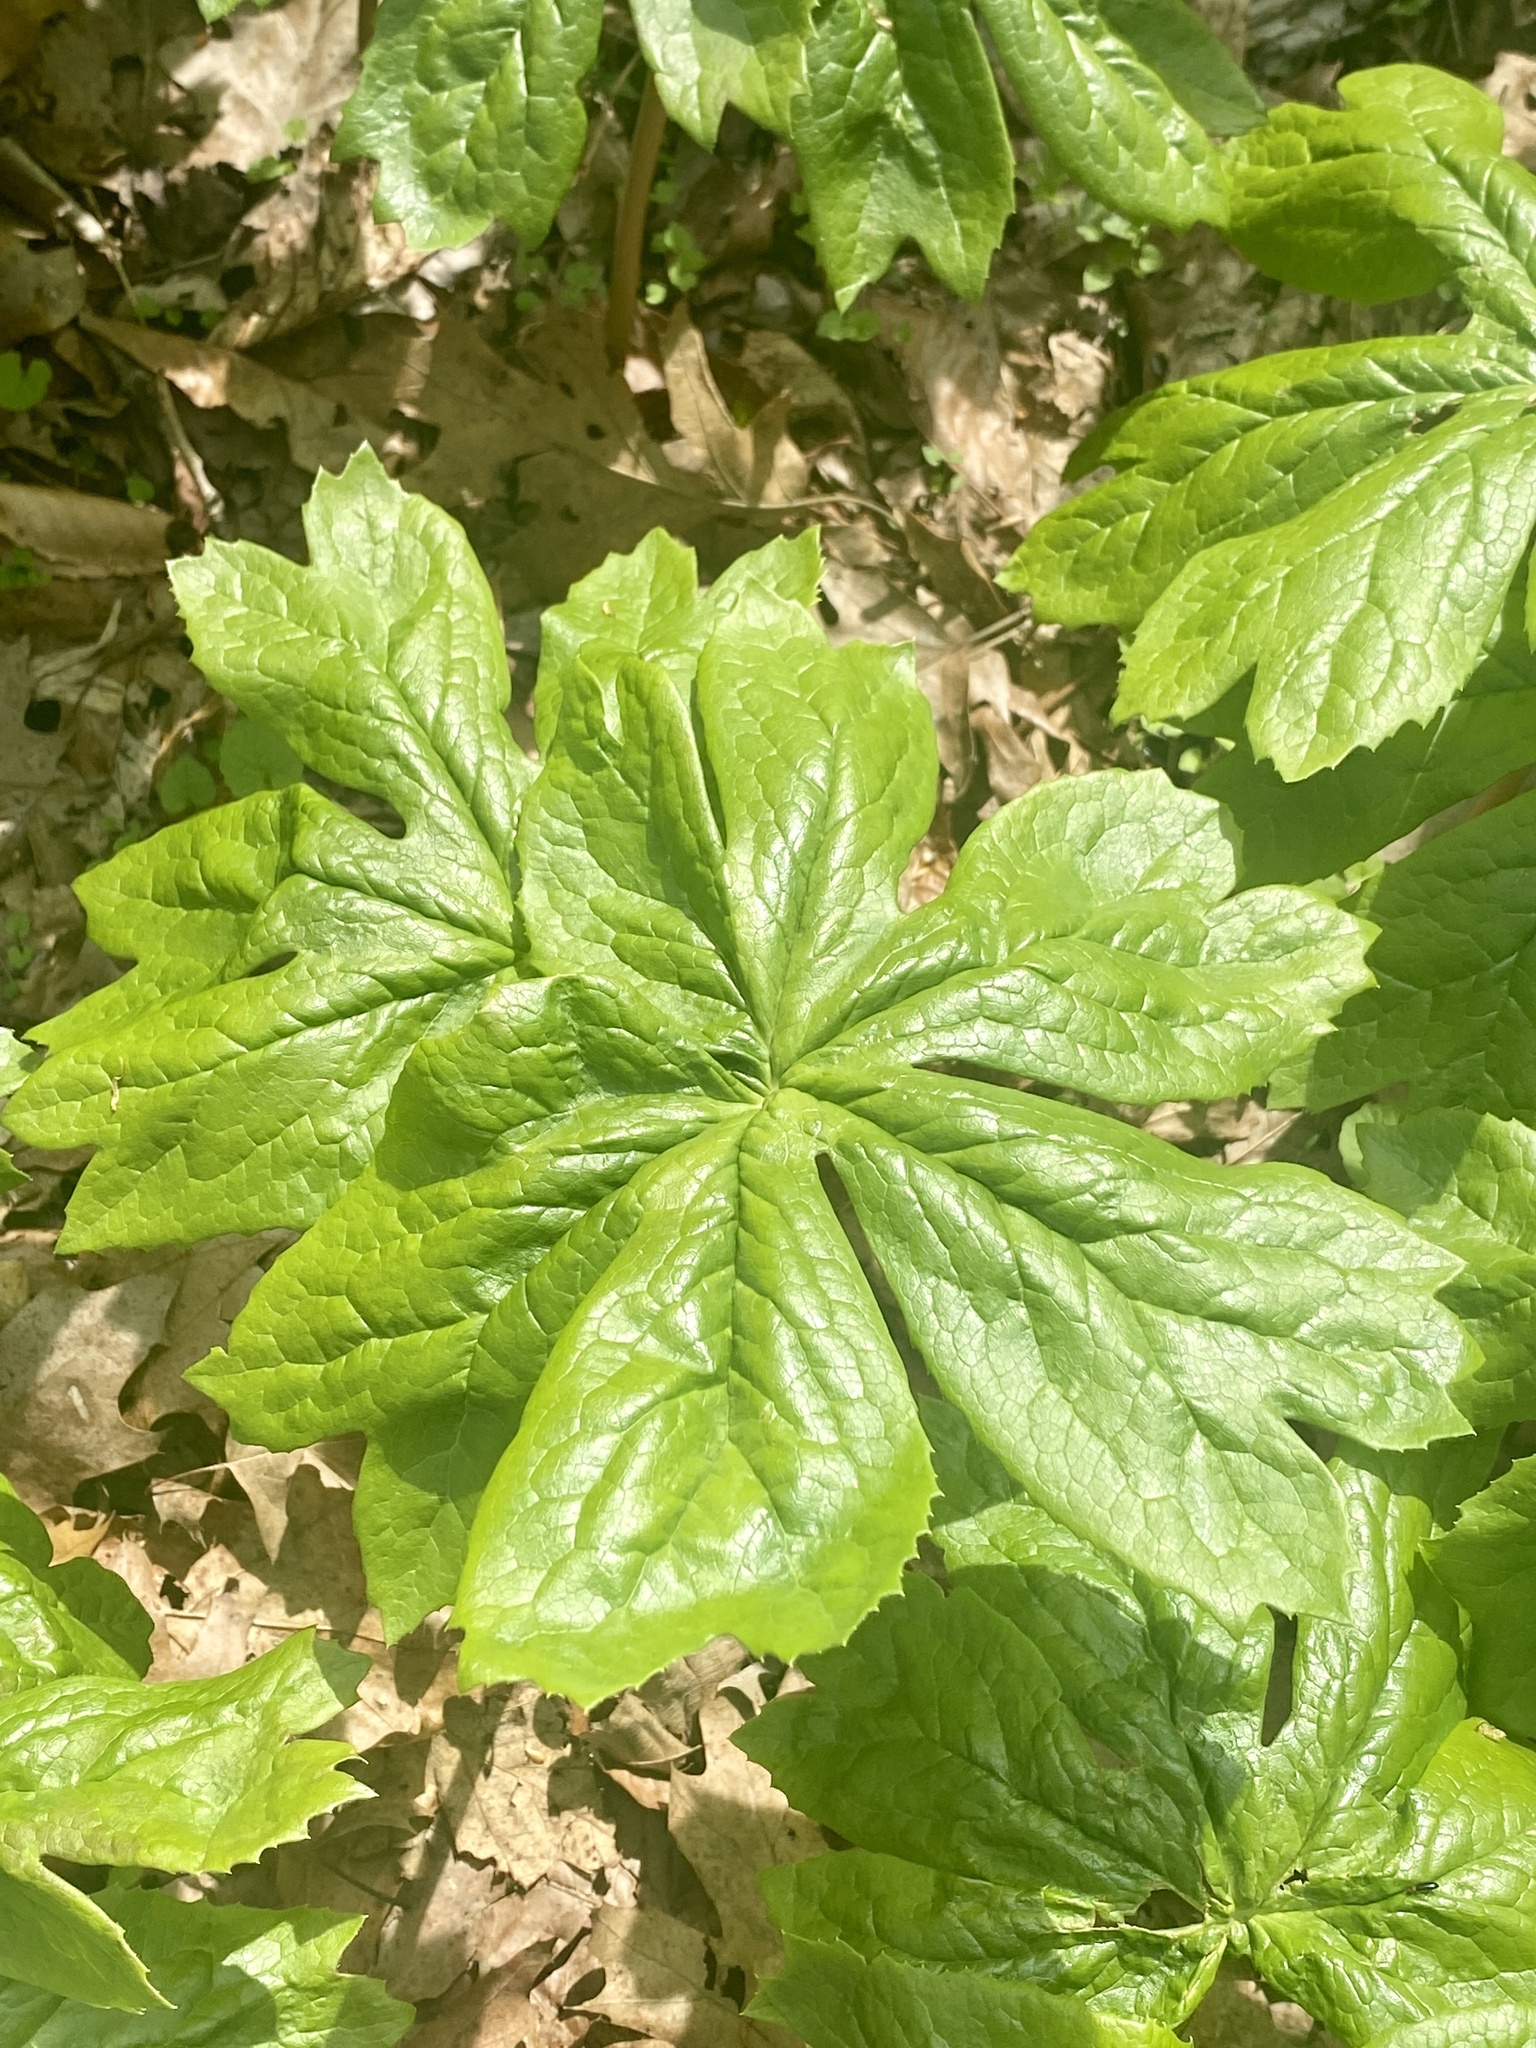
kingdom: Plantae
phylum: Tracheophyta
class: Magnoliopsida
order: Ranunculales
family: Berberidaceae
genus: Podophyllum
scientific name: Podophyllum peltatum
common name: Wild mandrake
